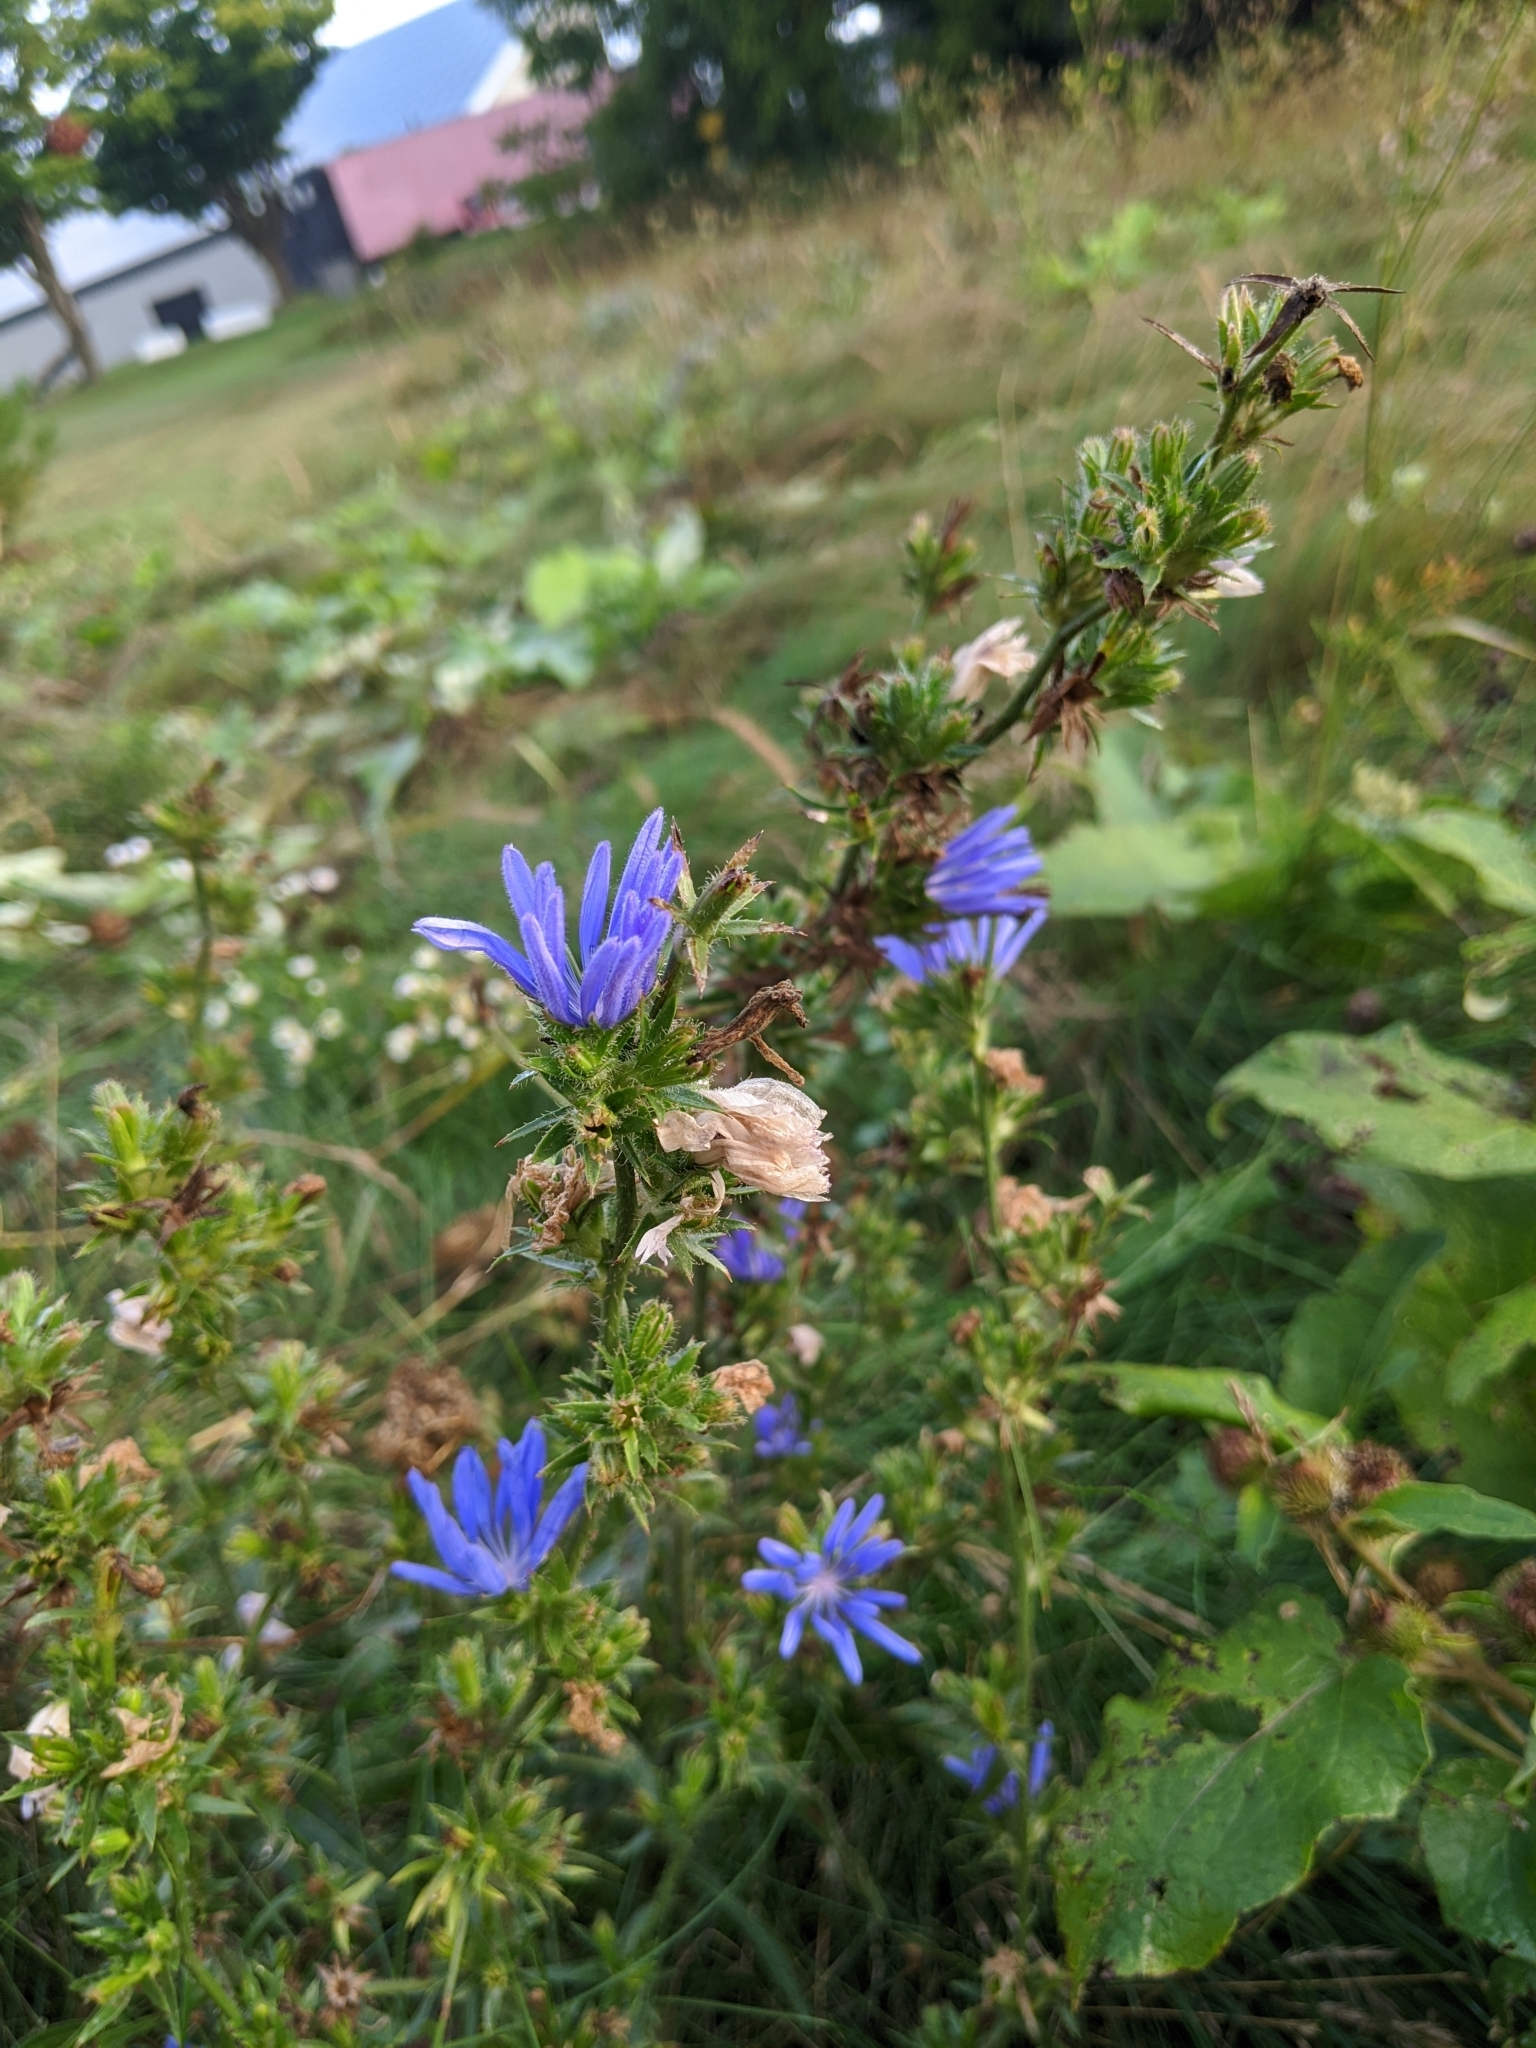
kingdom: Plantae
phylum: Tracheophyta
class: Magnoliopsida
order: Asterales
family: Asteraceae
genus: Cichorium
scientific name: Cichorium intybus
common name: Chicory
